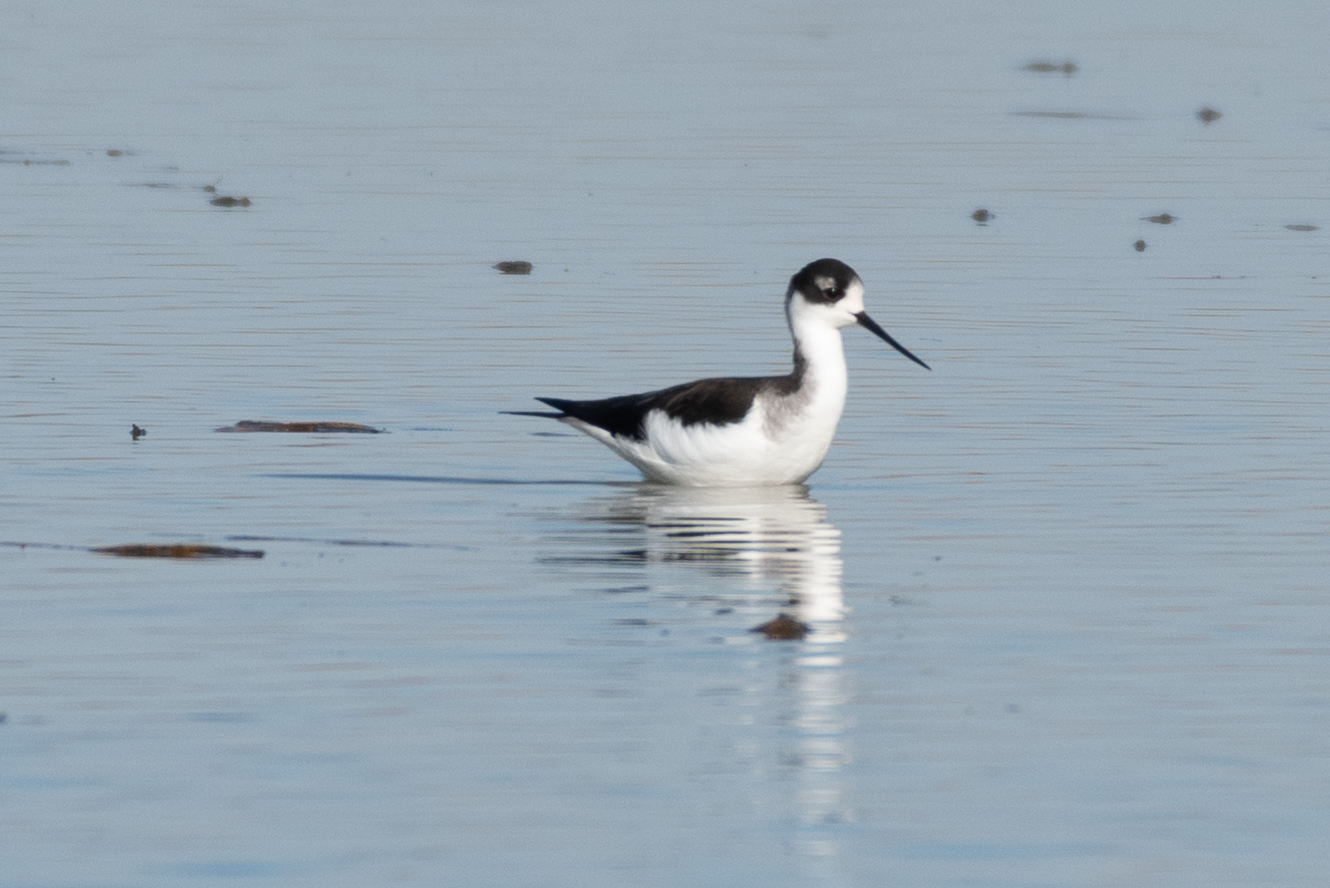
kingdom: Animalia
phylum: Chordata
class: Aves
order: Charadriiformes
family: Recurvirostridae
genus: Himantopus
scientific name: Himantopus mexicanus
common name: Black-necked stilt
